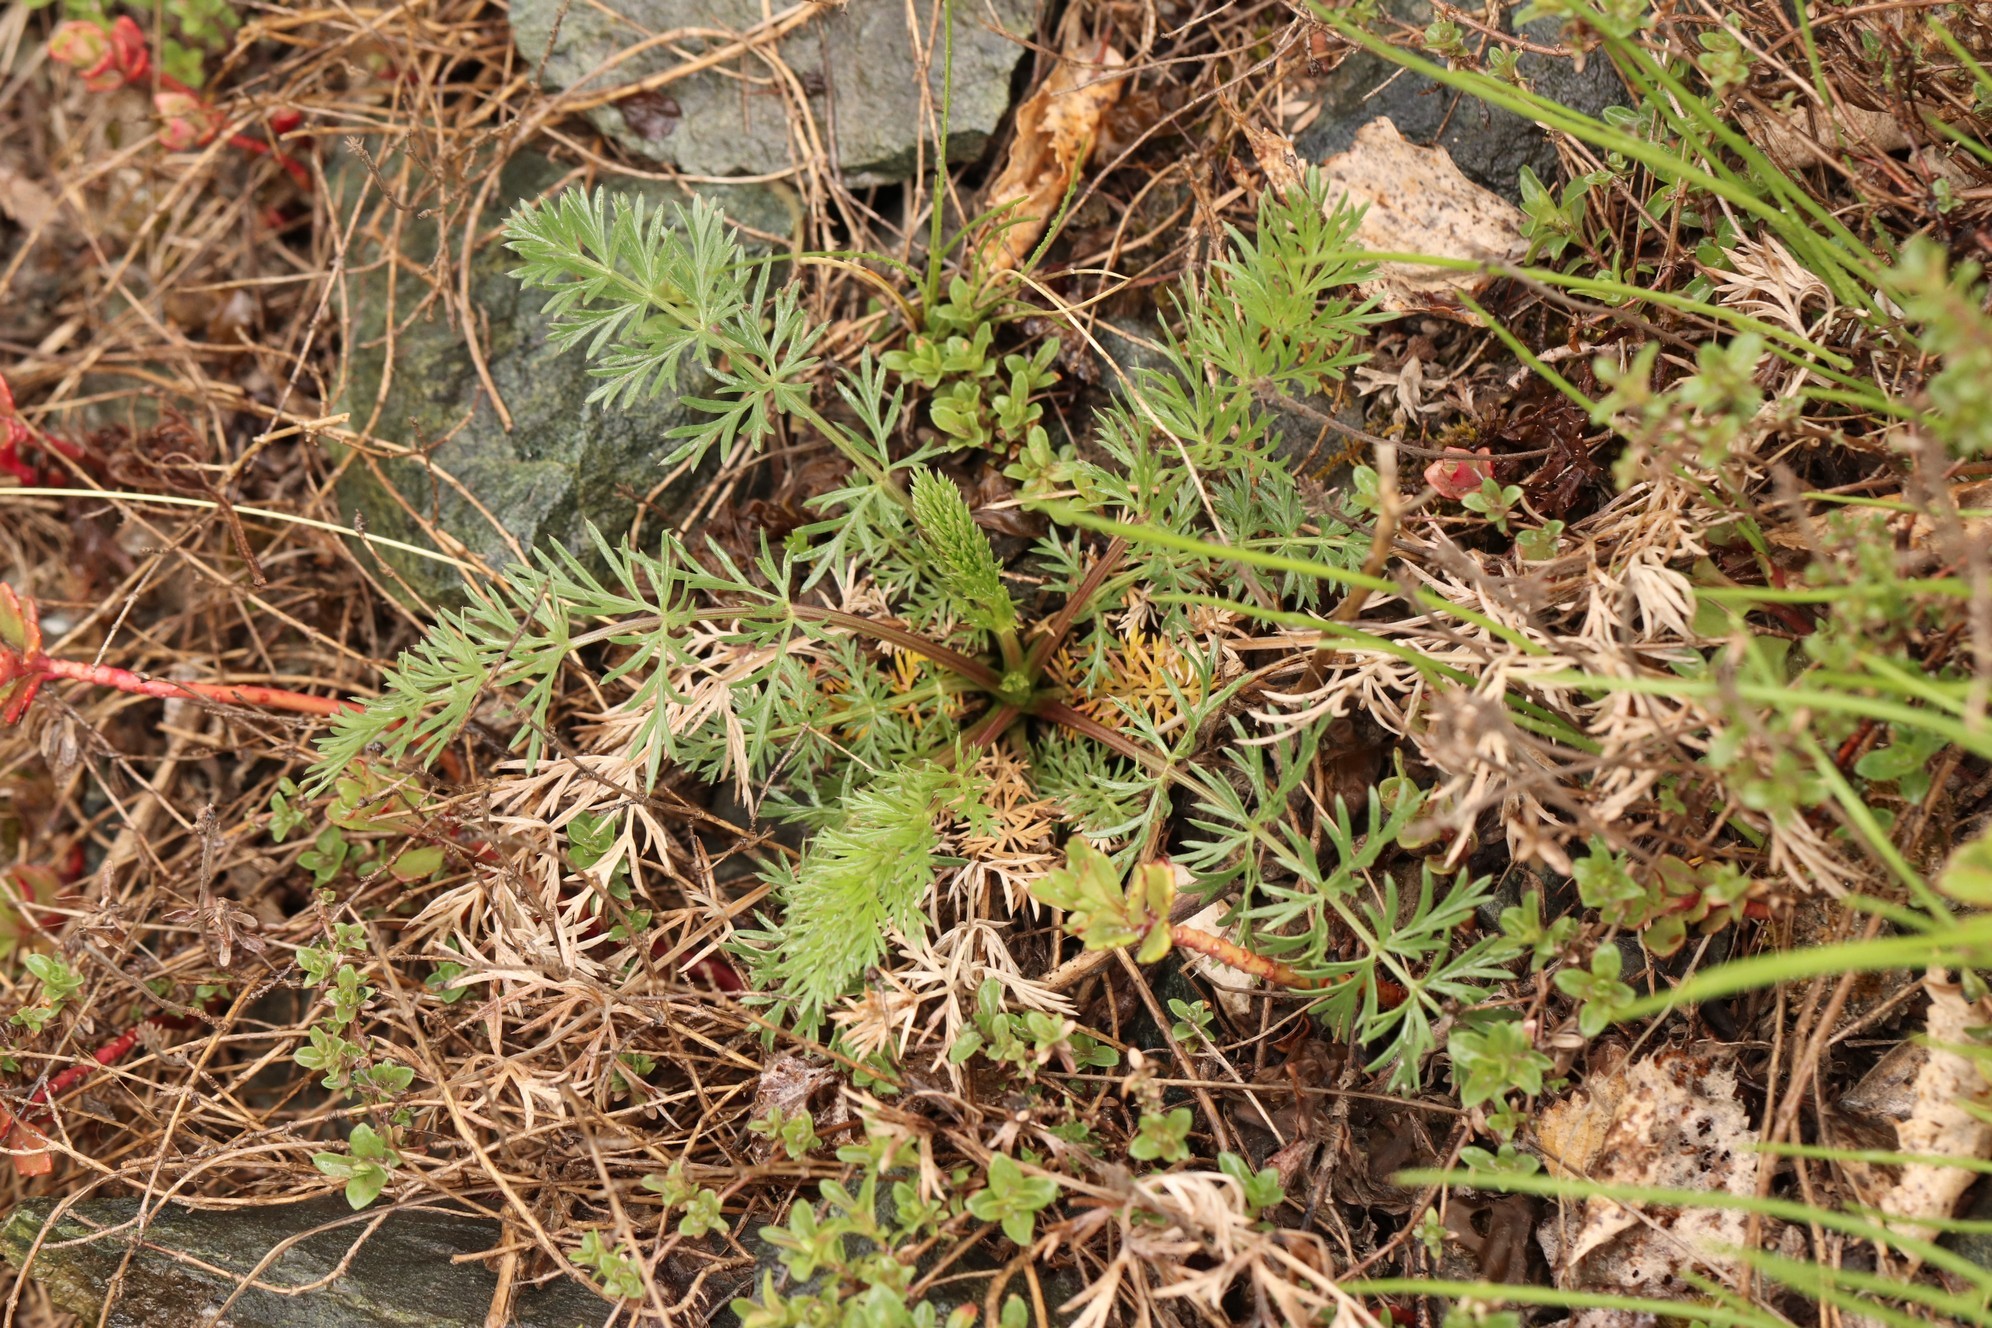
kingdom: Plantae
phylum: Tracheophyta
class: Magnoliopsida
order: Apiales
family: Apiaceae
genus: Kitagawia
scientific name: Kitagawia baicalensis
